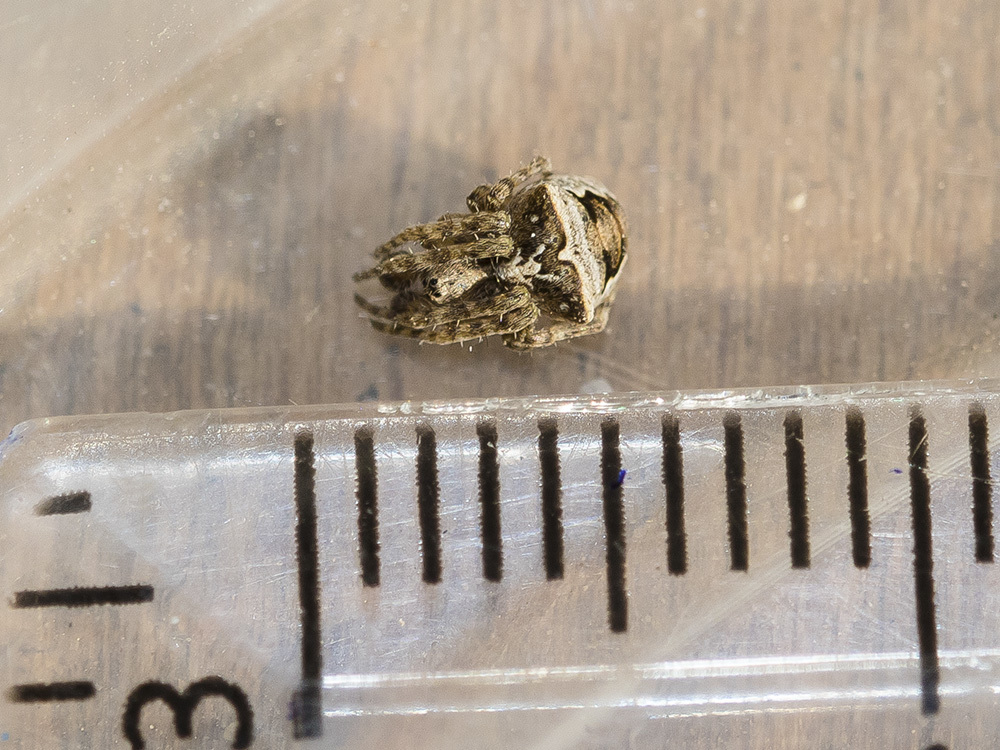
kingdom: Animalia
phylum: Arthropoda
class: Arachnida
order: Araneae
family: Araneidae
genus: Gibbaranea
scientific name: Gibbaranea ullrichi
